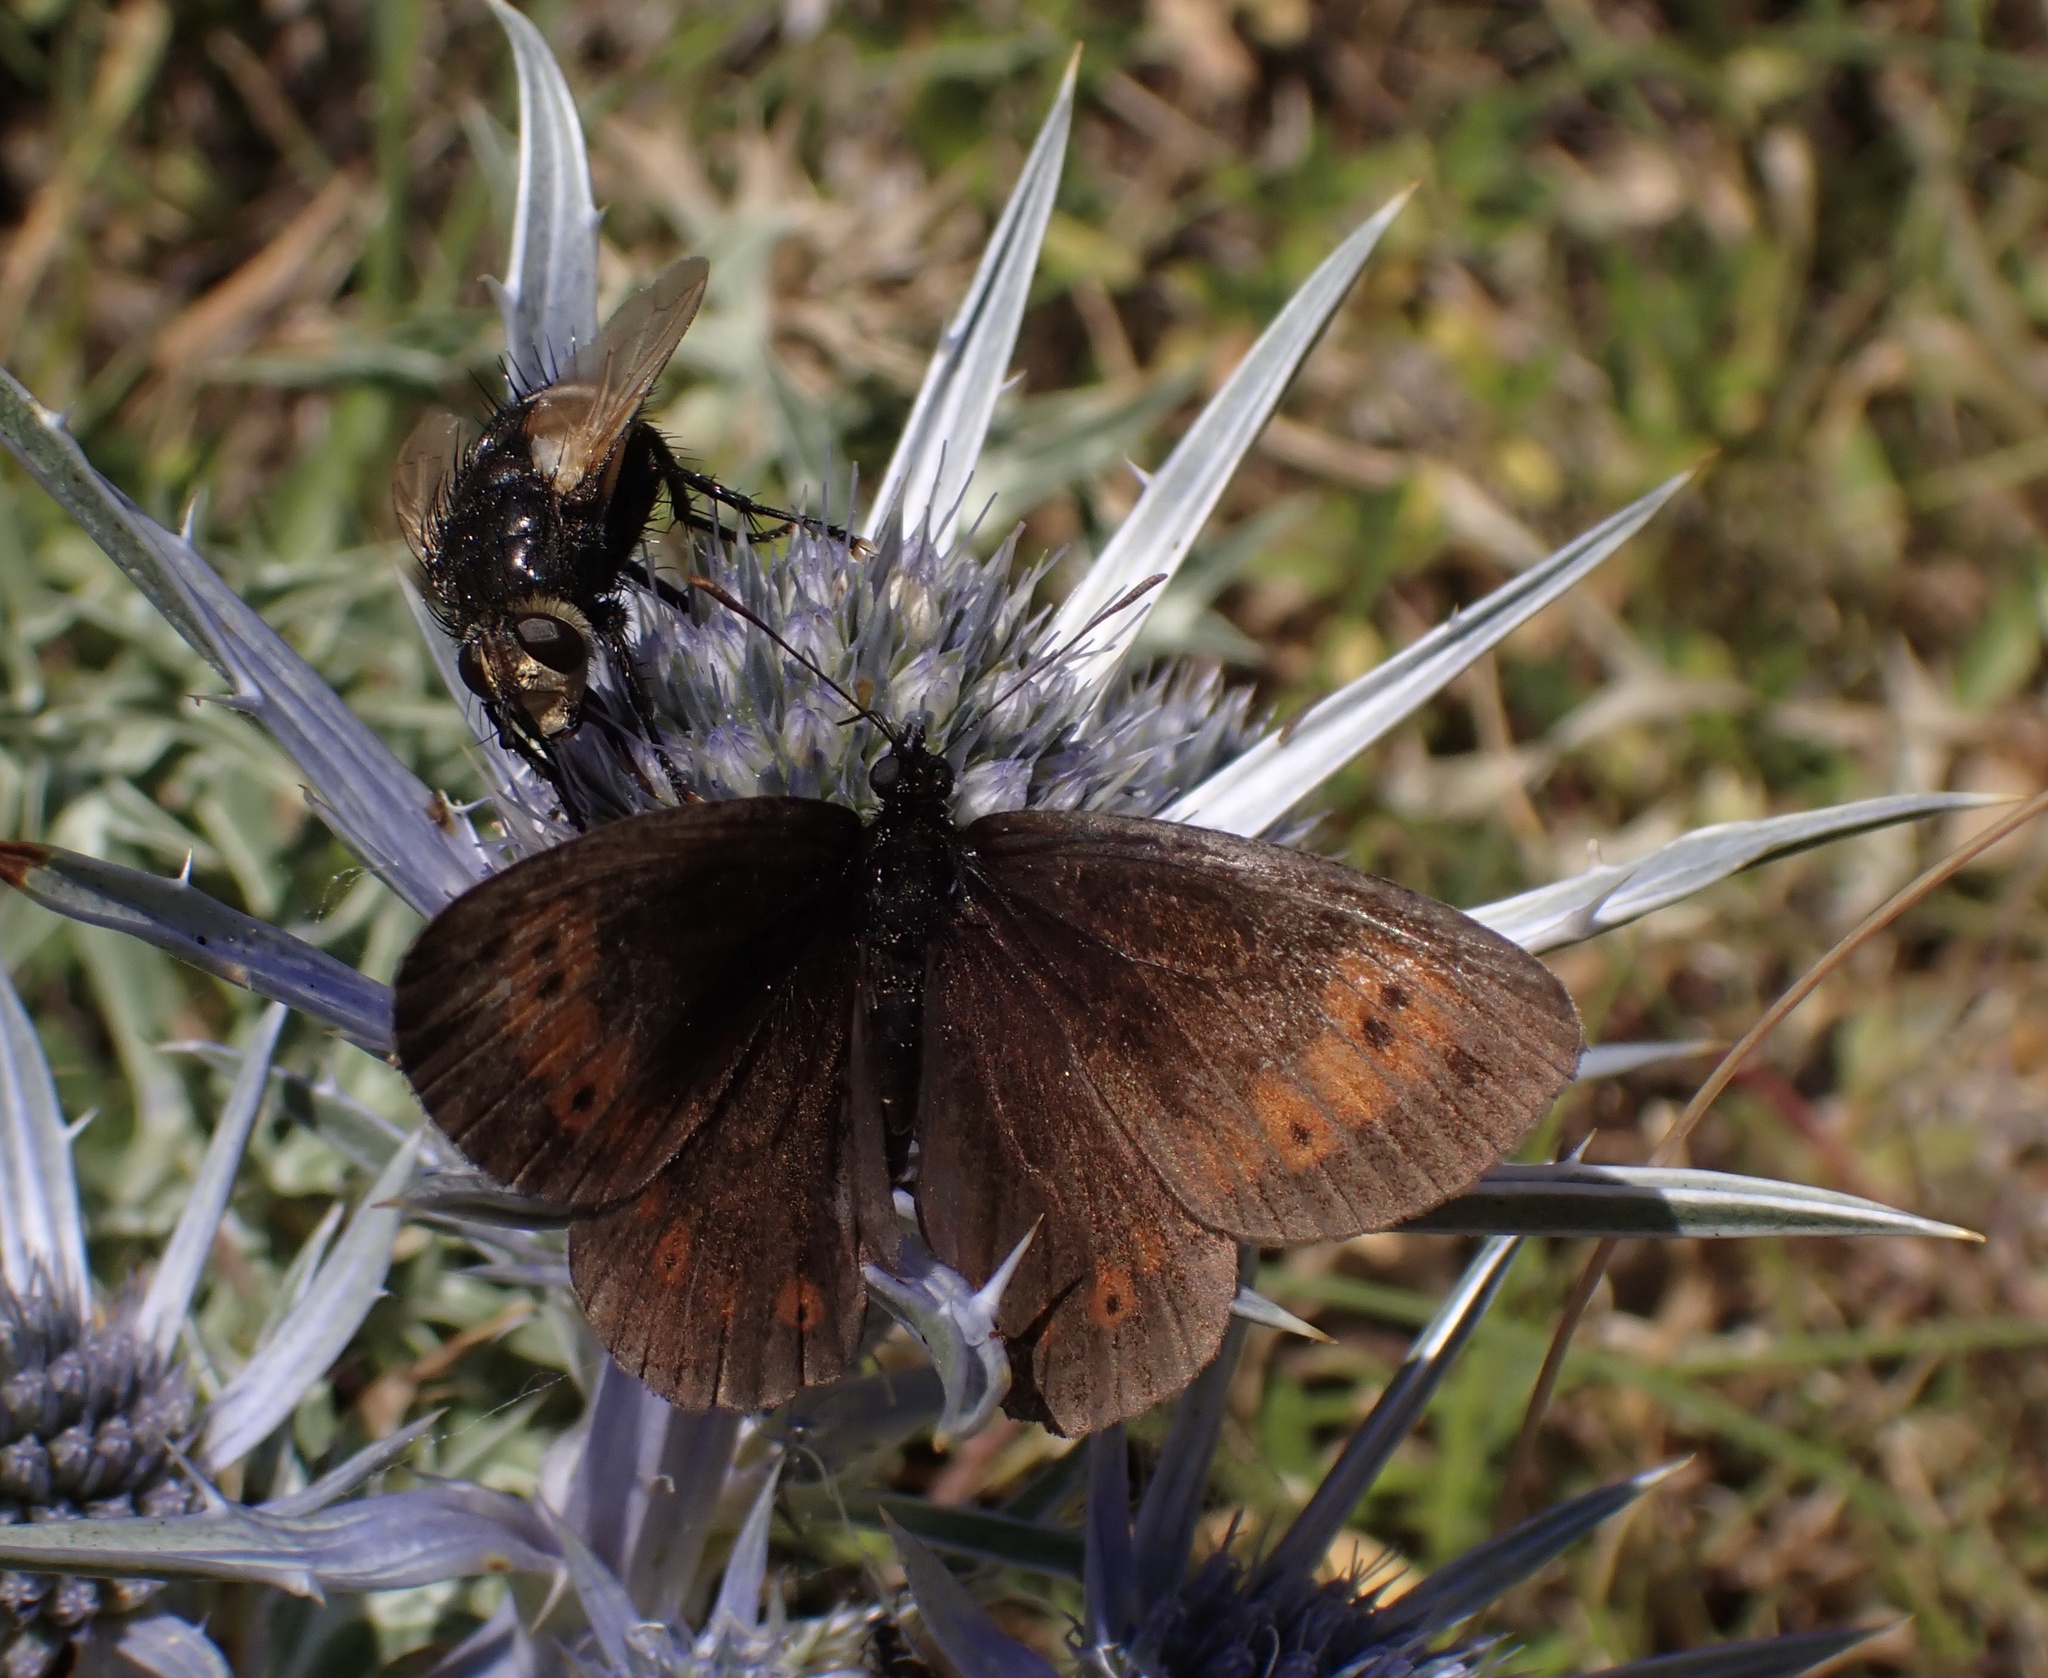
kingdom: Animalia
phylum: Arthropoda
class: Insecta
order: Lepidoptera
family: Nymphalidae
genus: Erebia
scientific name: Erebia epiphron
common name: Mountain ringlet
